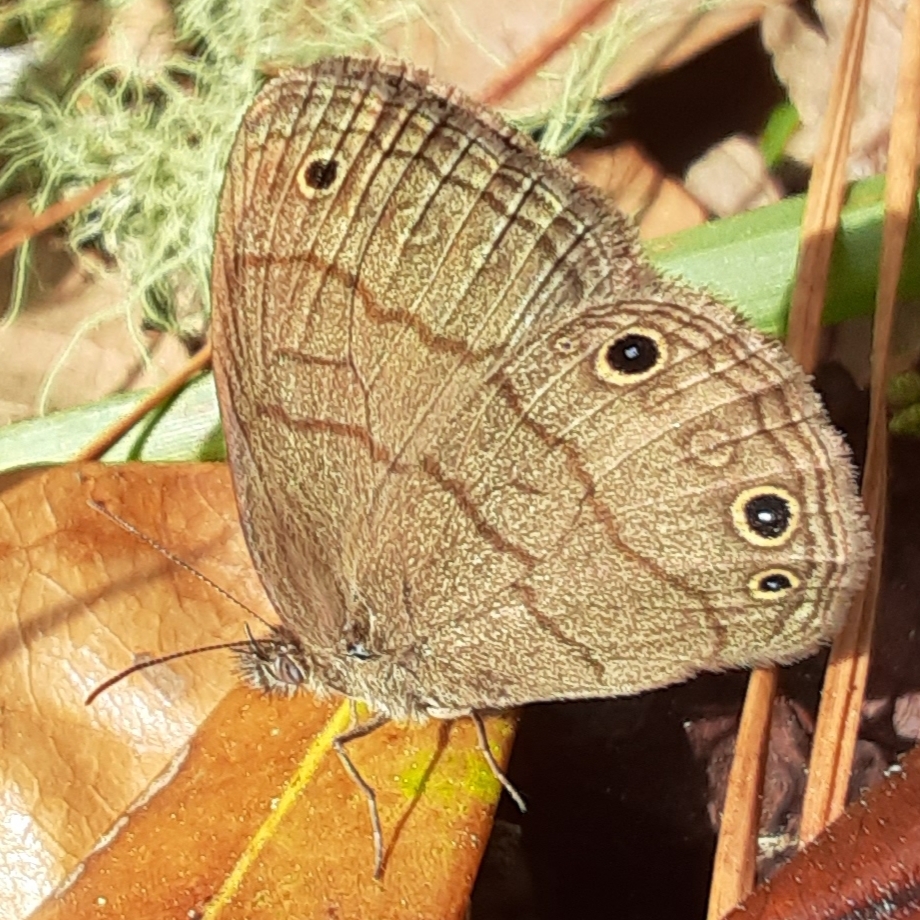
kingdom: Animalia
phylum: Arthropoda
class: Insecta
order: Lepidoptera
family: Nymphalidae
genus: Hermeuptychia
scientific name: Hermeuptychia hermes
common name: Hermes satyr
